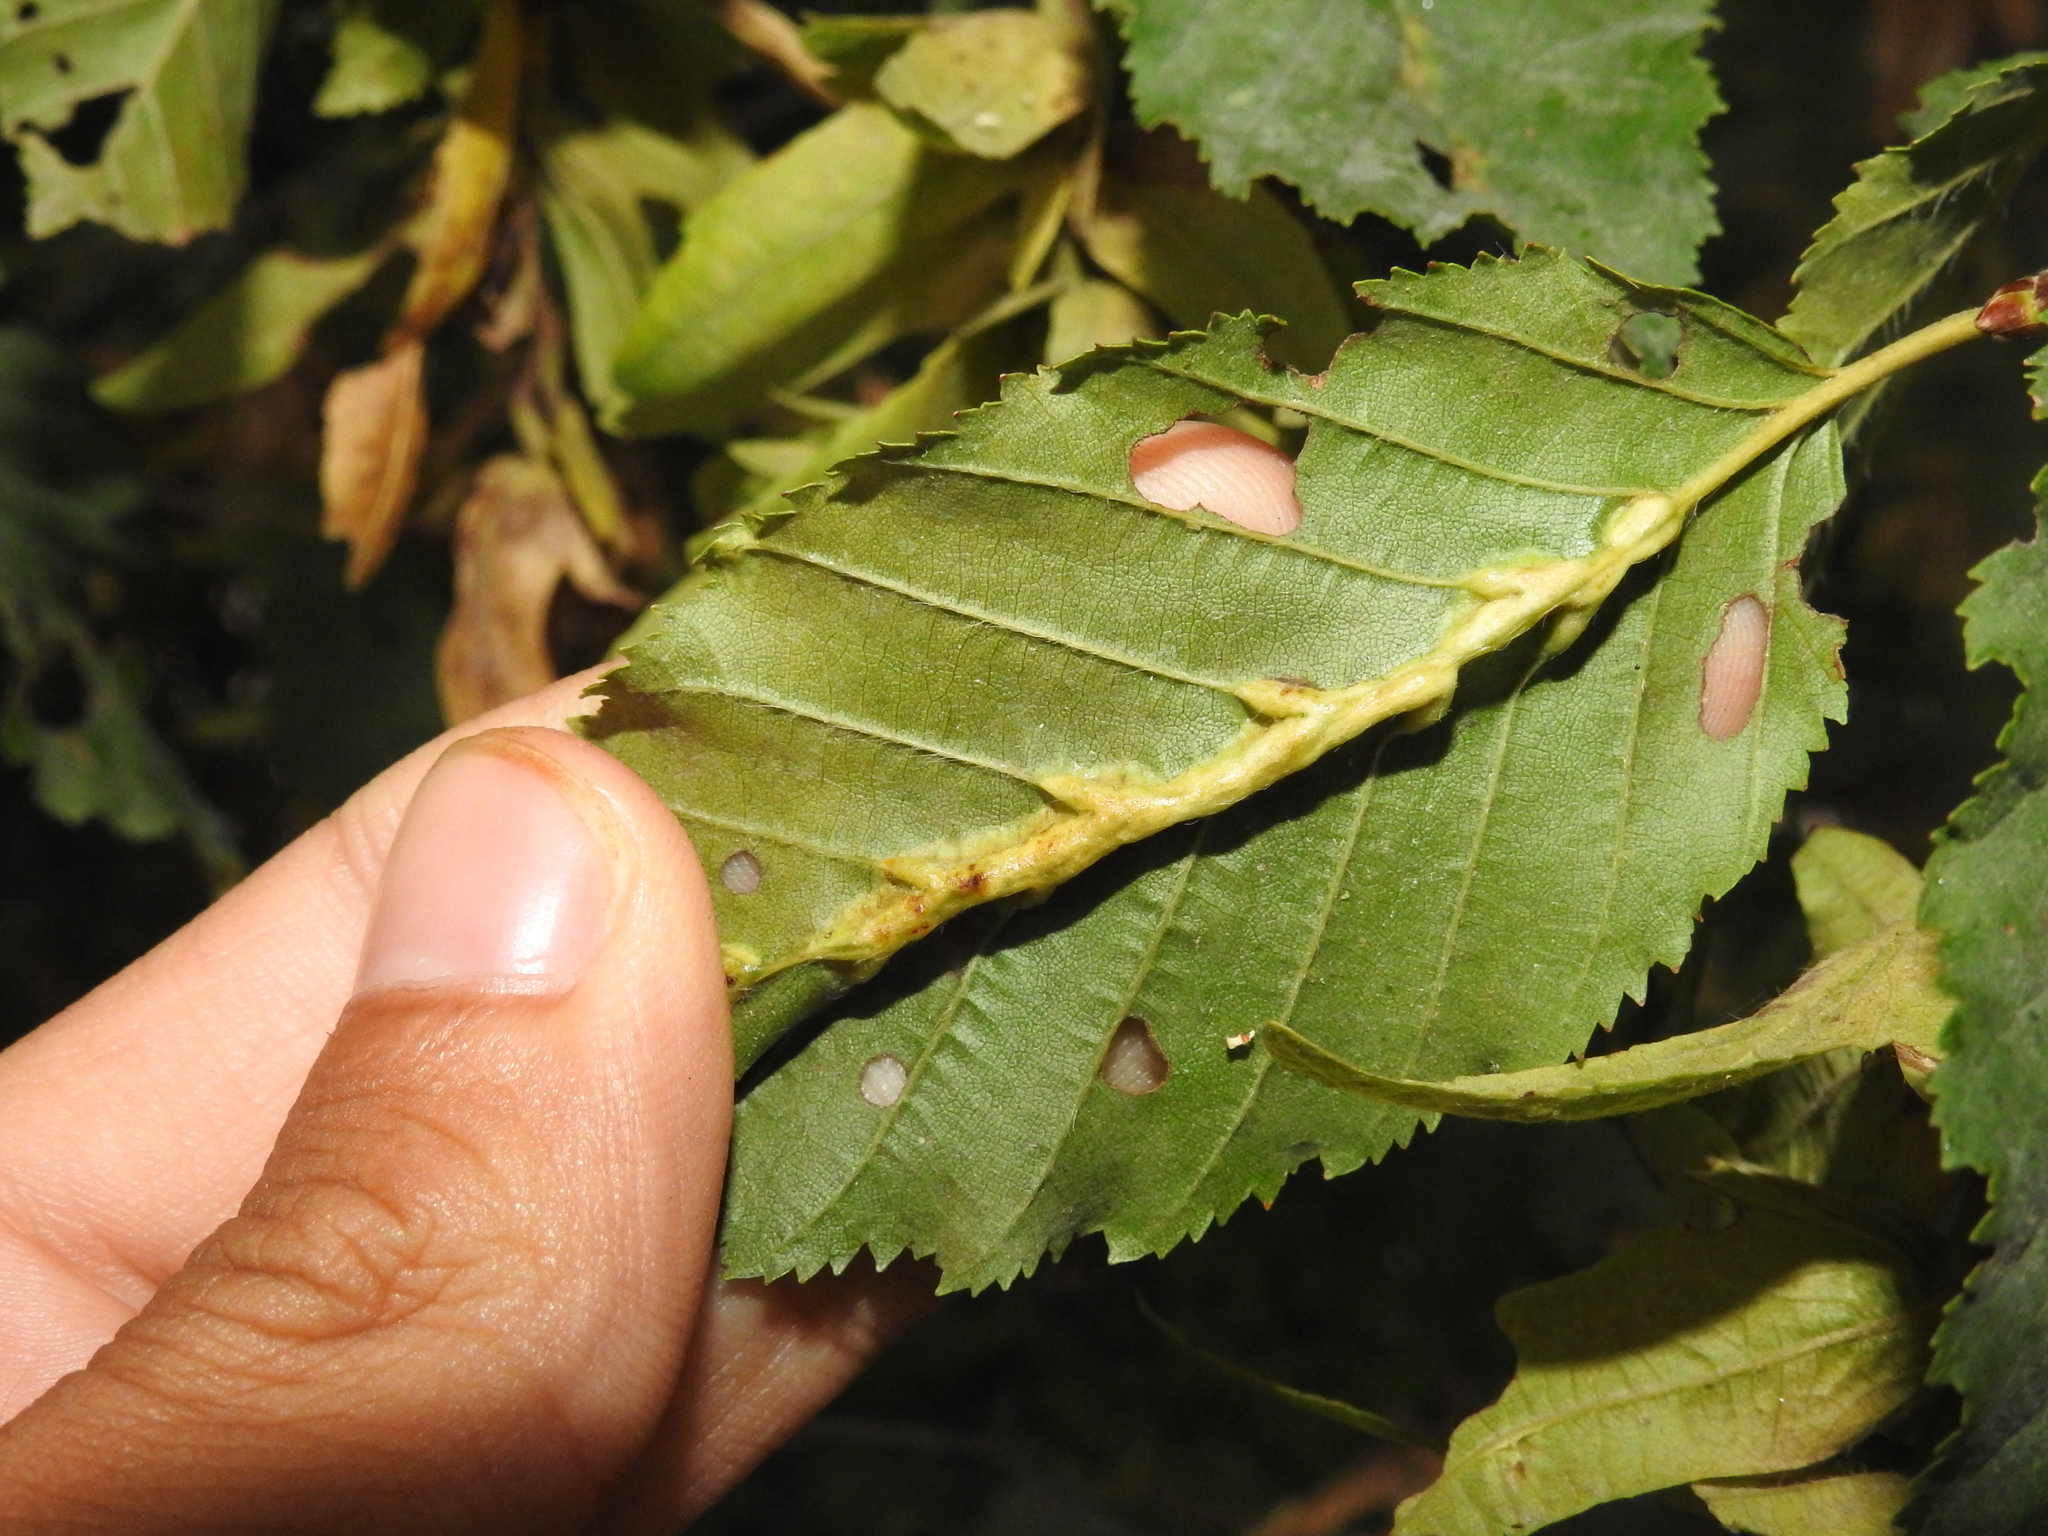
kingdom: Animalia
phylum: Arthropoda
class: Insecta
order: Diptera
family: Cecidomyiidae
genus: Zygiobia
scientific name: Zygiobia carpini
